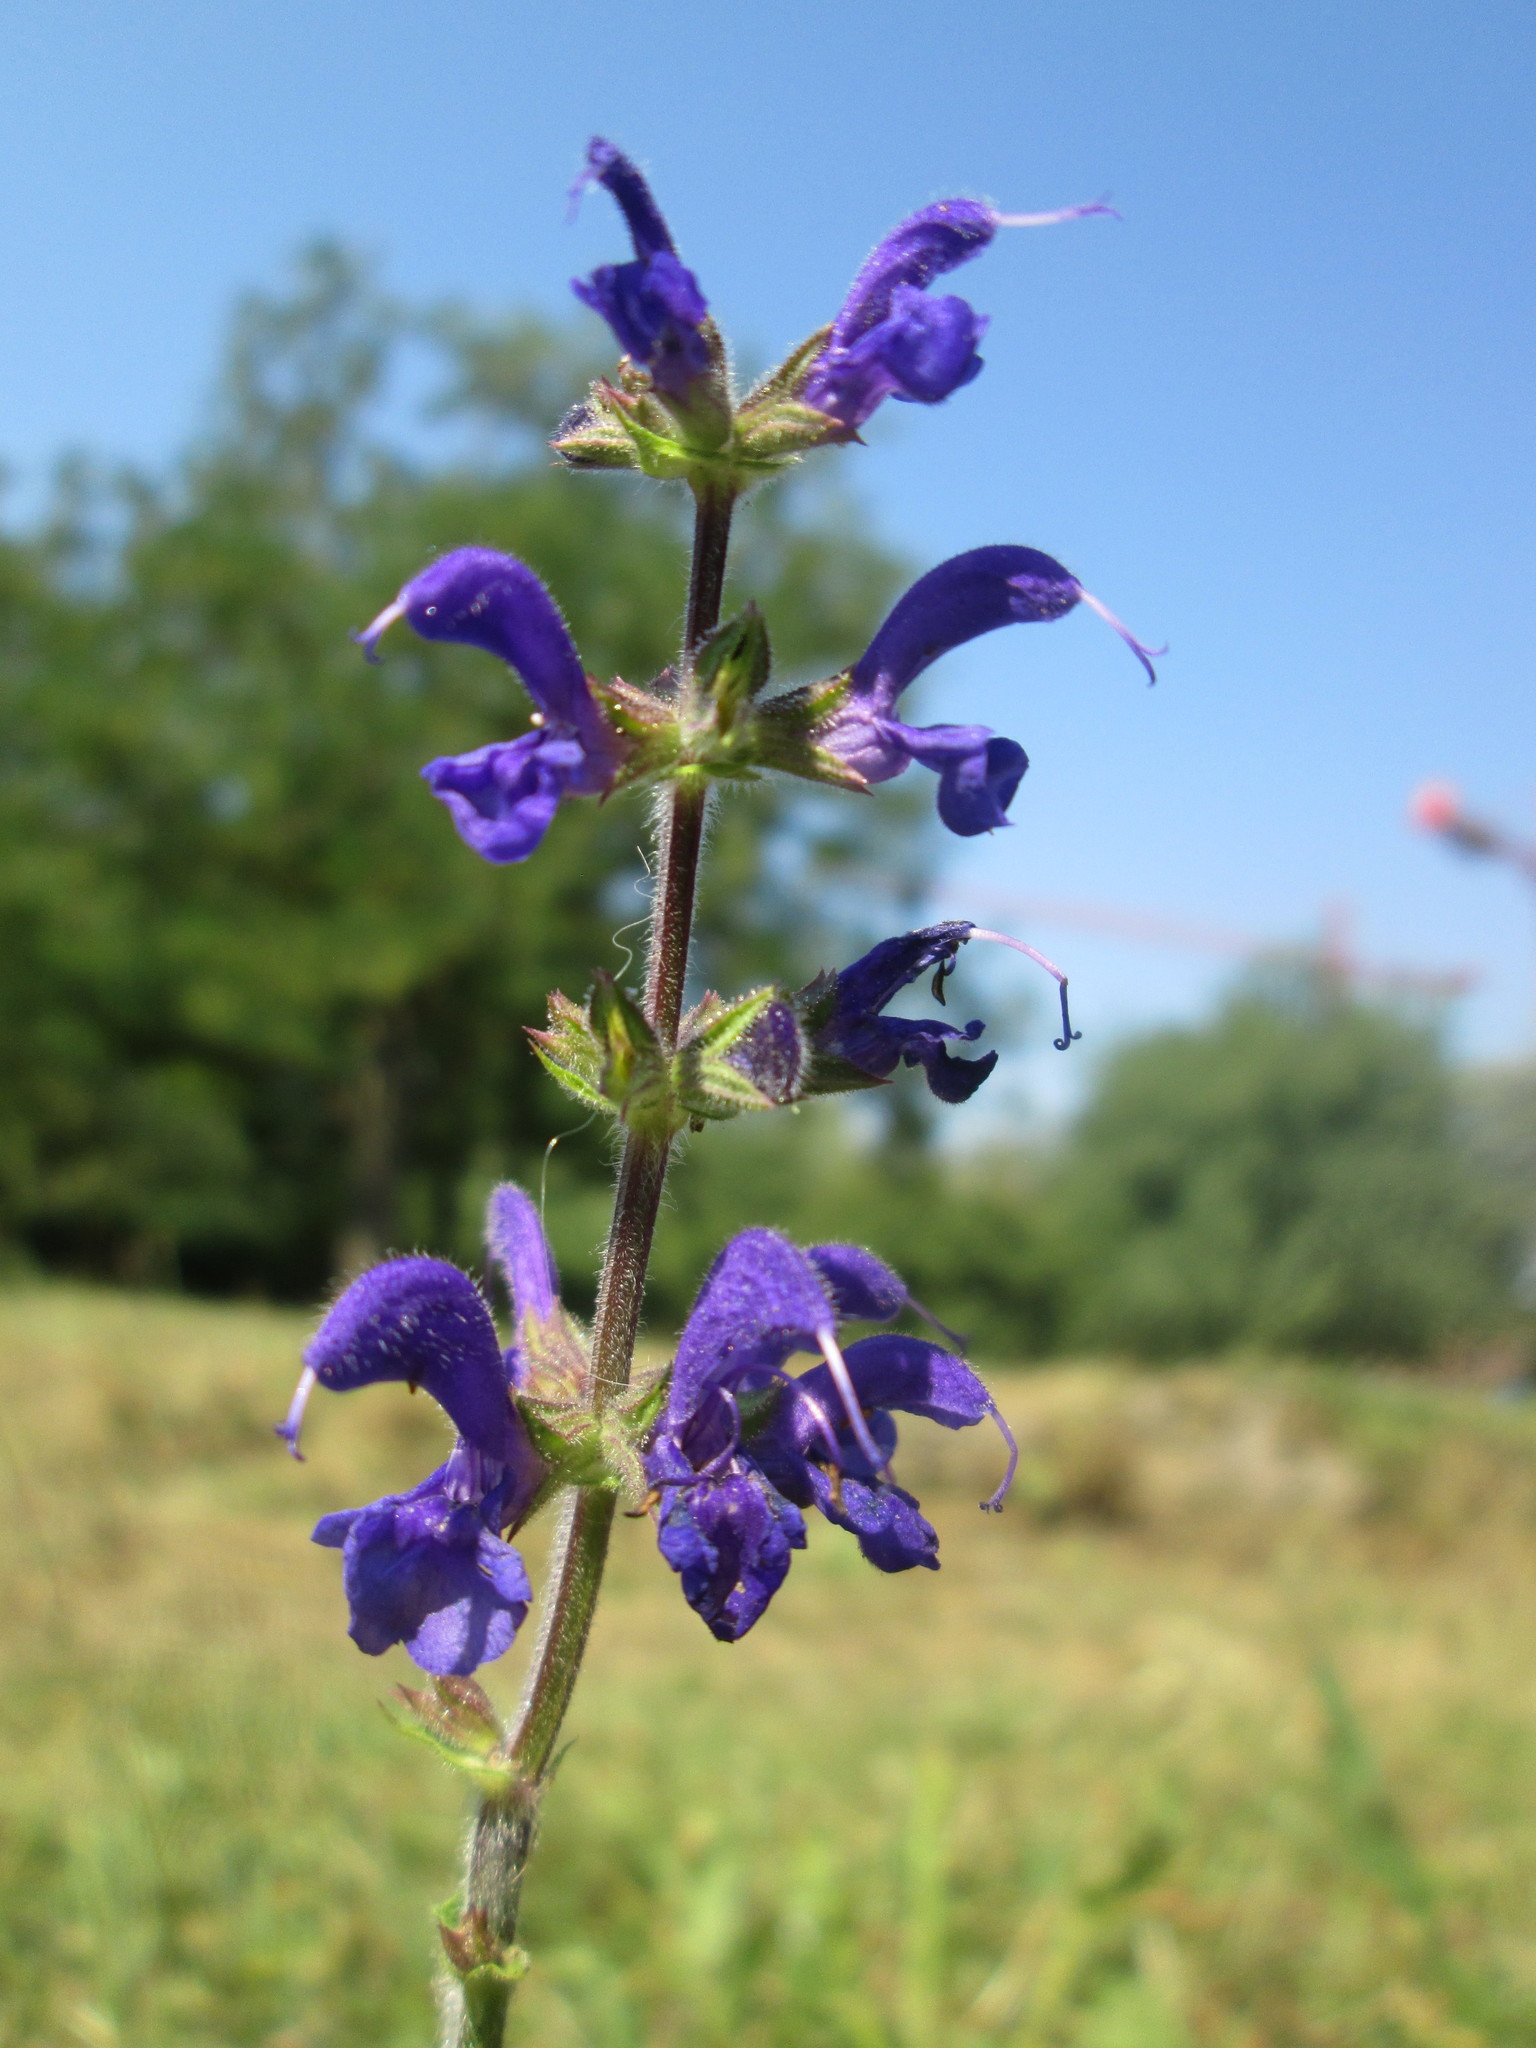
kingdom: Plantae
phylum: Tracheophyta
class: Magnoliopsida
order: Lamiales
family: Lamiaceae
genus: Salvia
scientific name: Salvia pratensis
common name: Meadow sage
